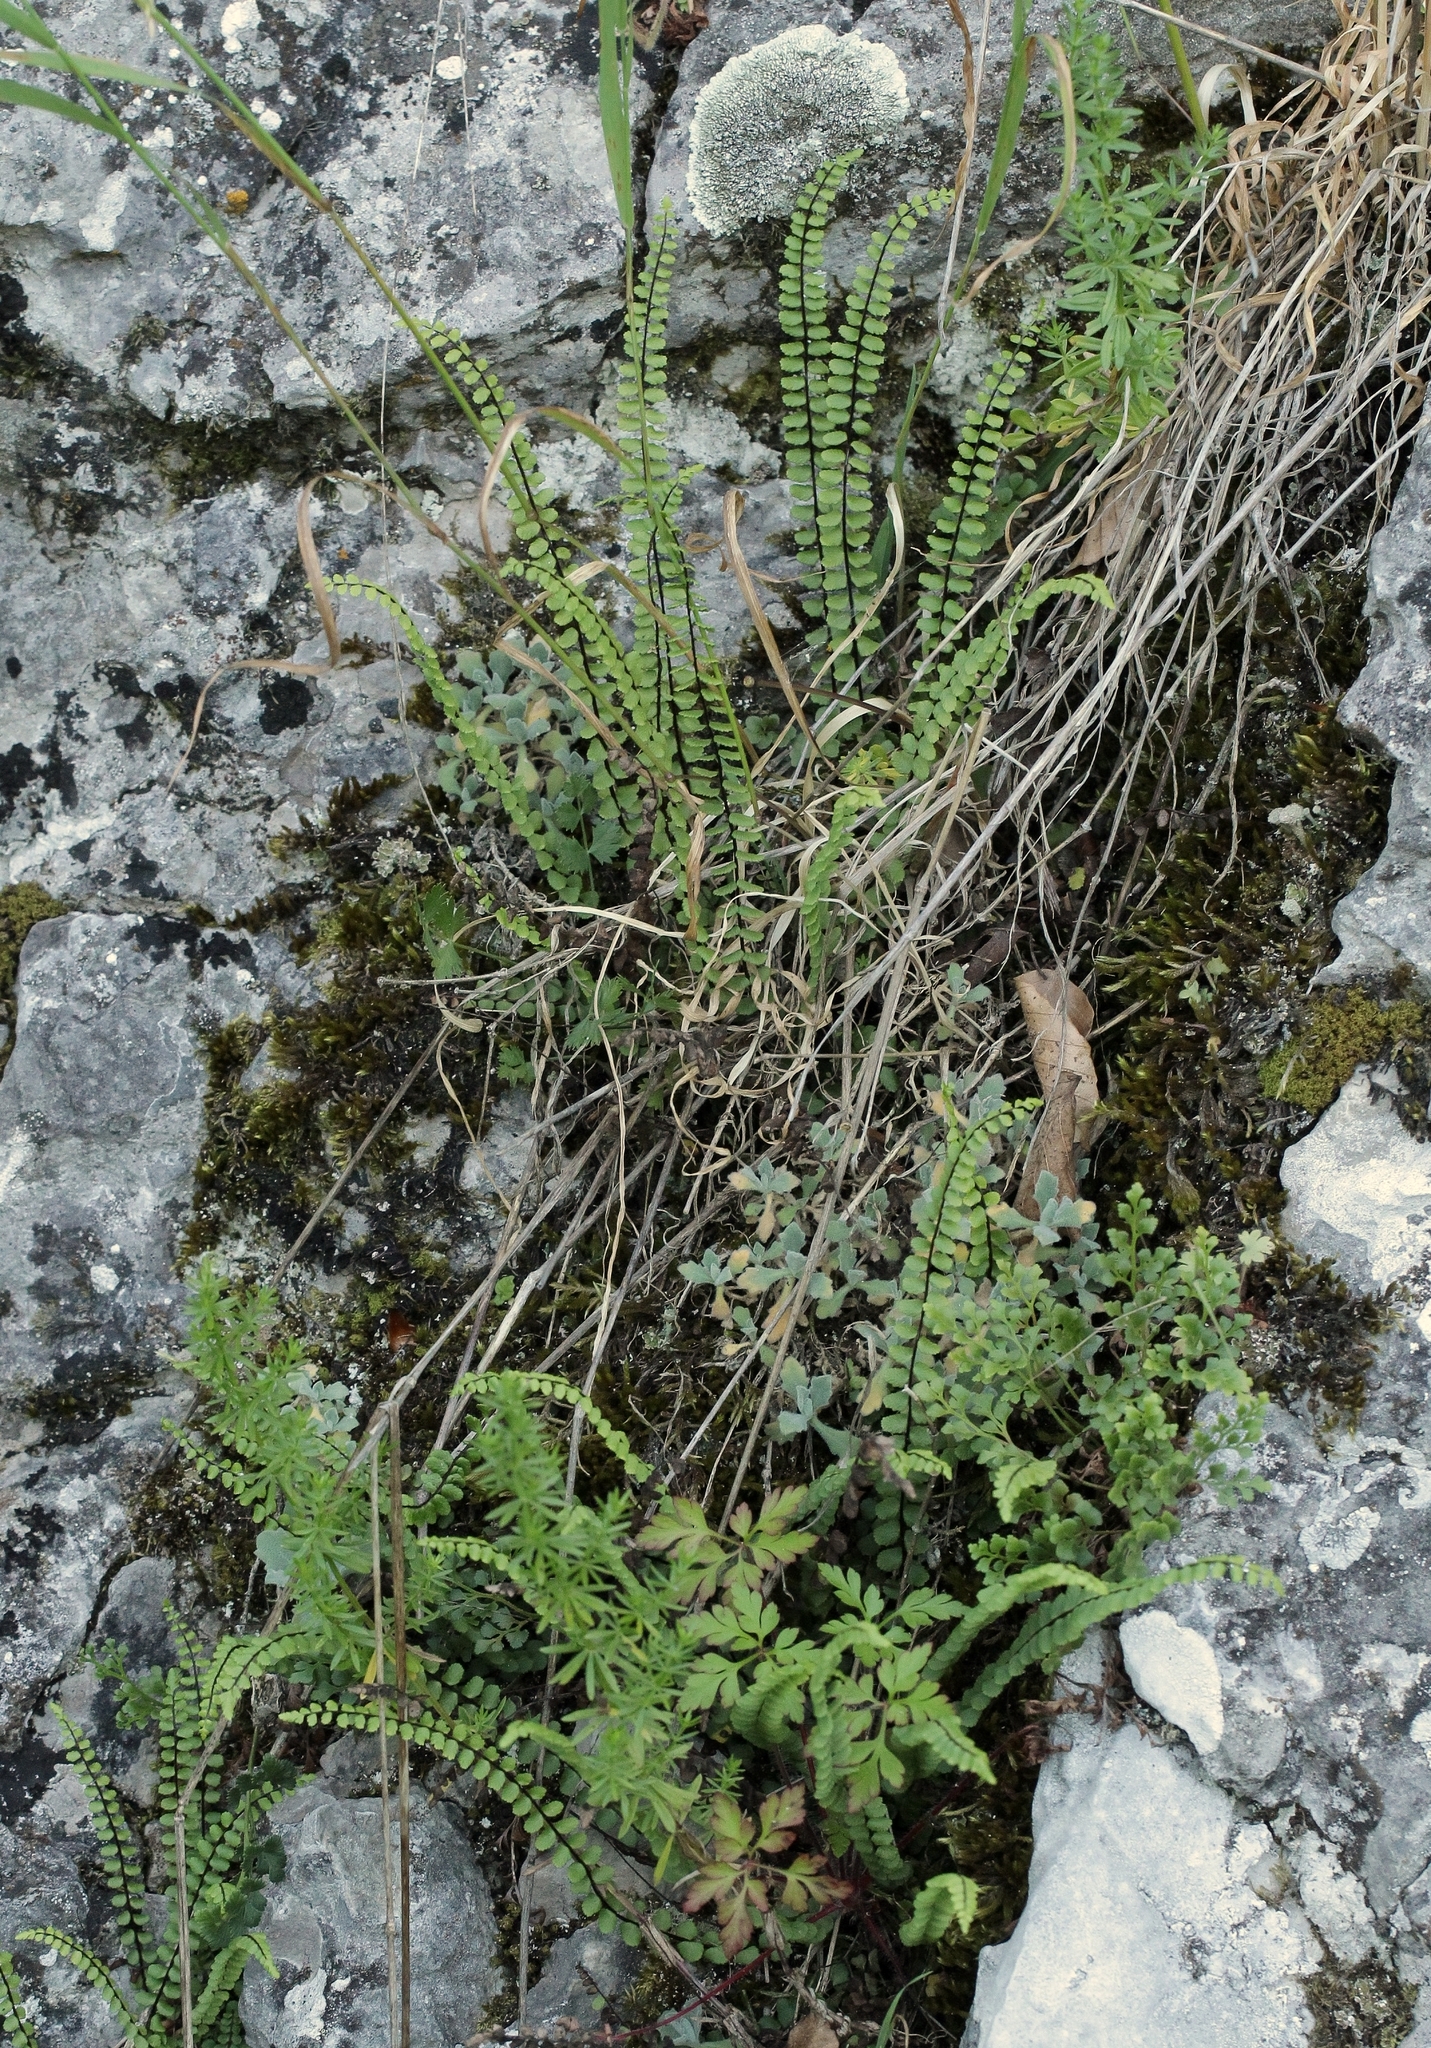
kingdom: Plantae
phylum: Tracheophyta
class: Polypodiopsida
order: Polypodiales
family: Aspleniaceae
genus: Asplenium
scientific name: Asplenium trichomanes
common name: Maidenhair spleenwort
